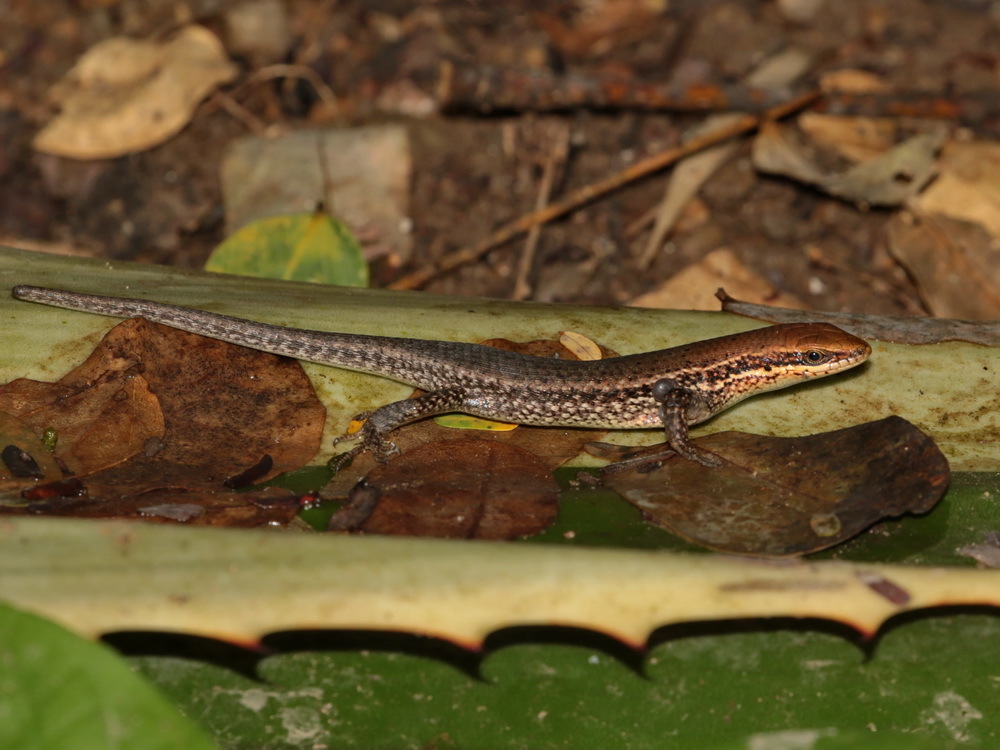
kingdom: Animalia
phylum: Chordata
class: Squamata
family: Scincidae
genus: Eutropis
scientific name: Eutropis macularia
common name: Bronze mabuya
